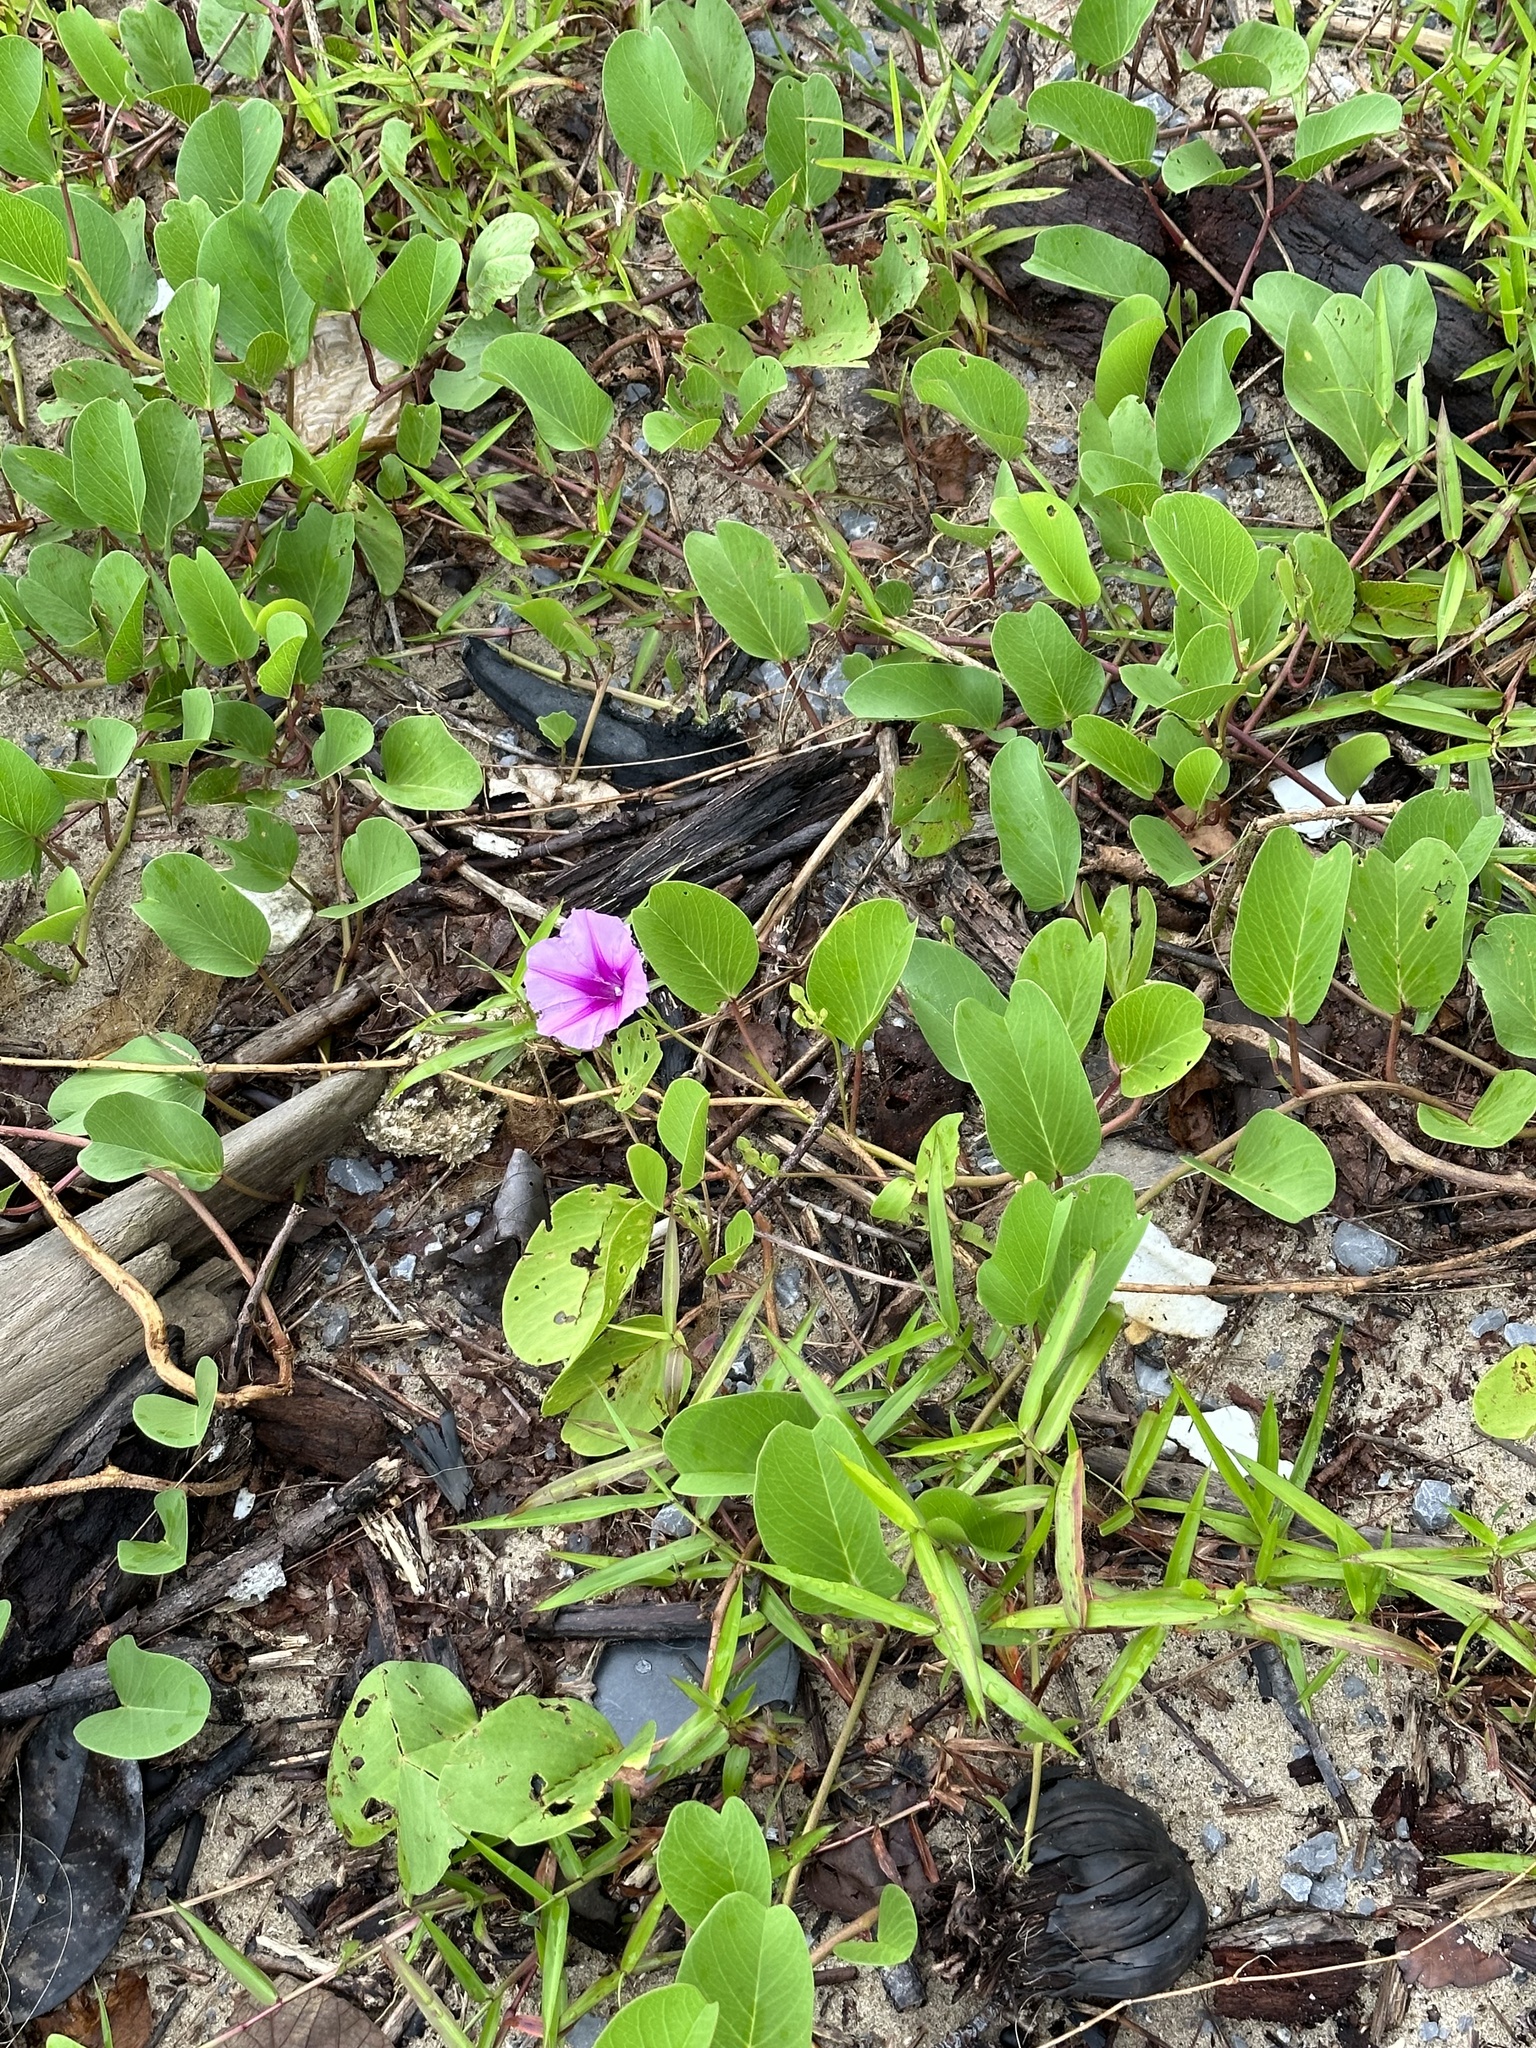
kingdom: Plantae
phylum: Tracheophyta
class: Magnoliopsida
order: Solanales
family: Convolvulaceae
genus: Ipomoea
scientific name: Ipomoea pes-caprae
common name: Beach morning glory
